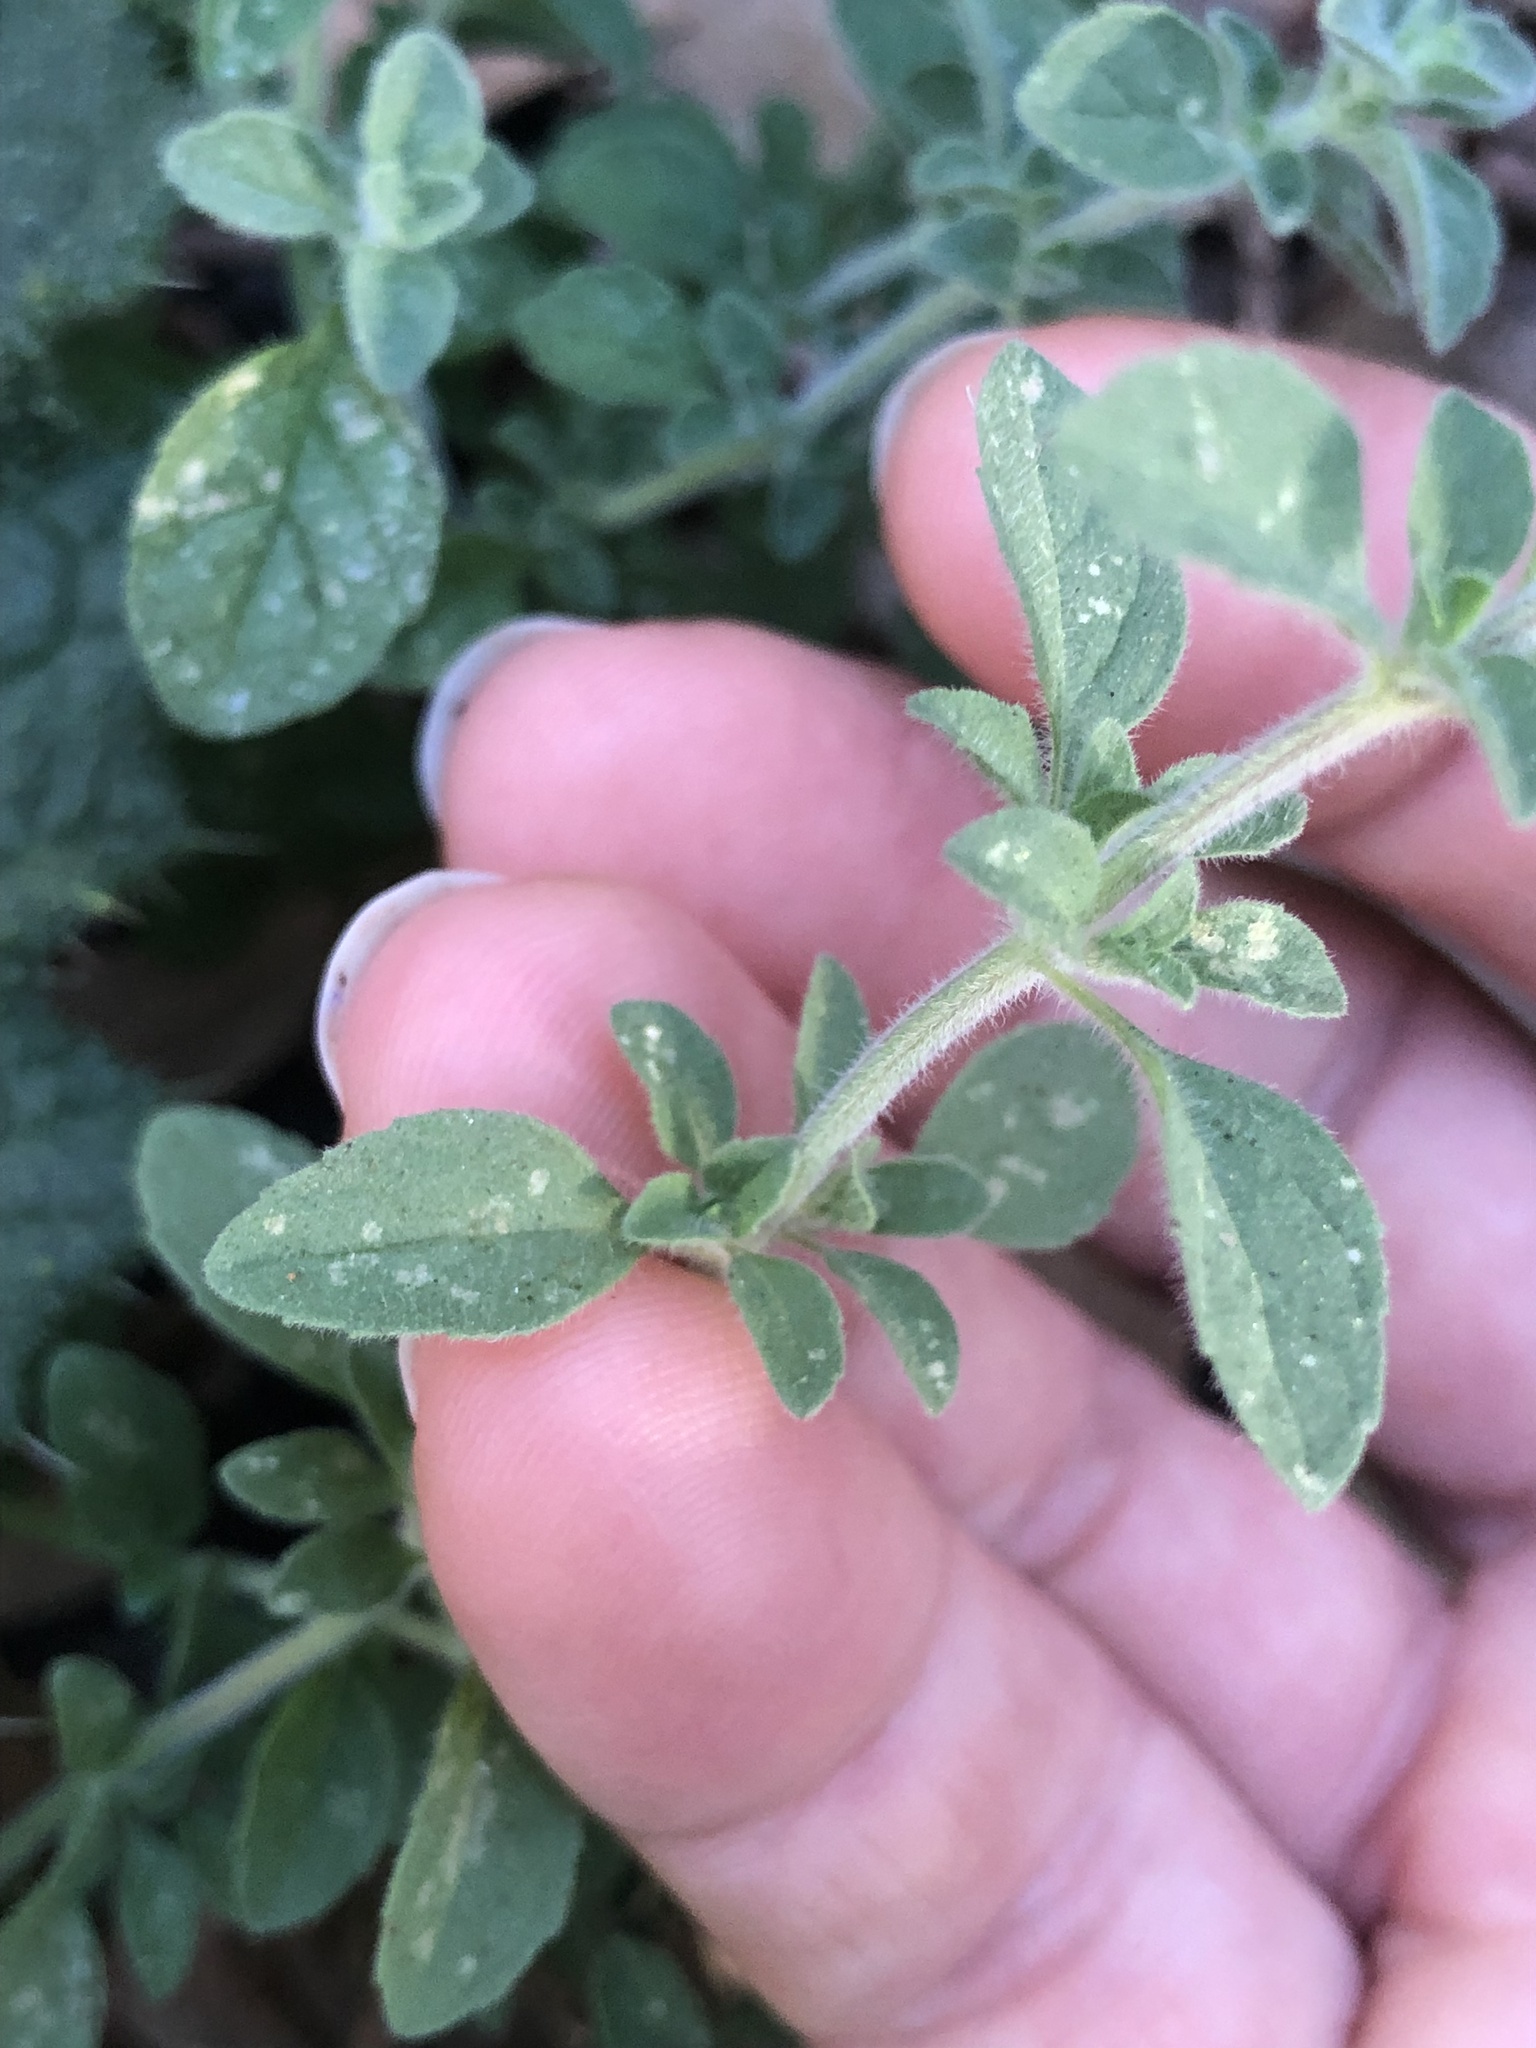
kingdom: Plantae
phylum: Tracheophyta
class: Magnoliopsida
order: Lamiales
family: Lamiaceae
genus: Mentha
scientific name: Mentha pulegium
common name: Pennyroyal
